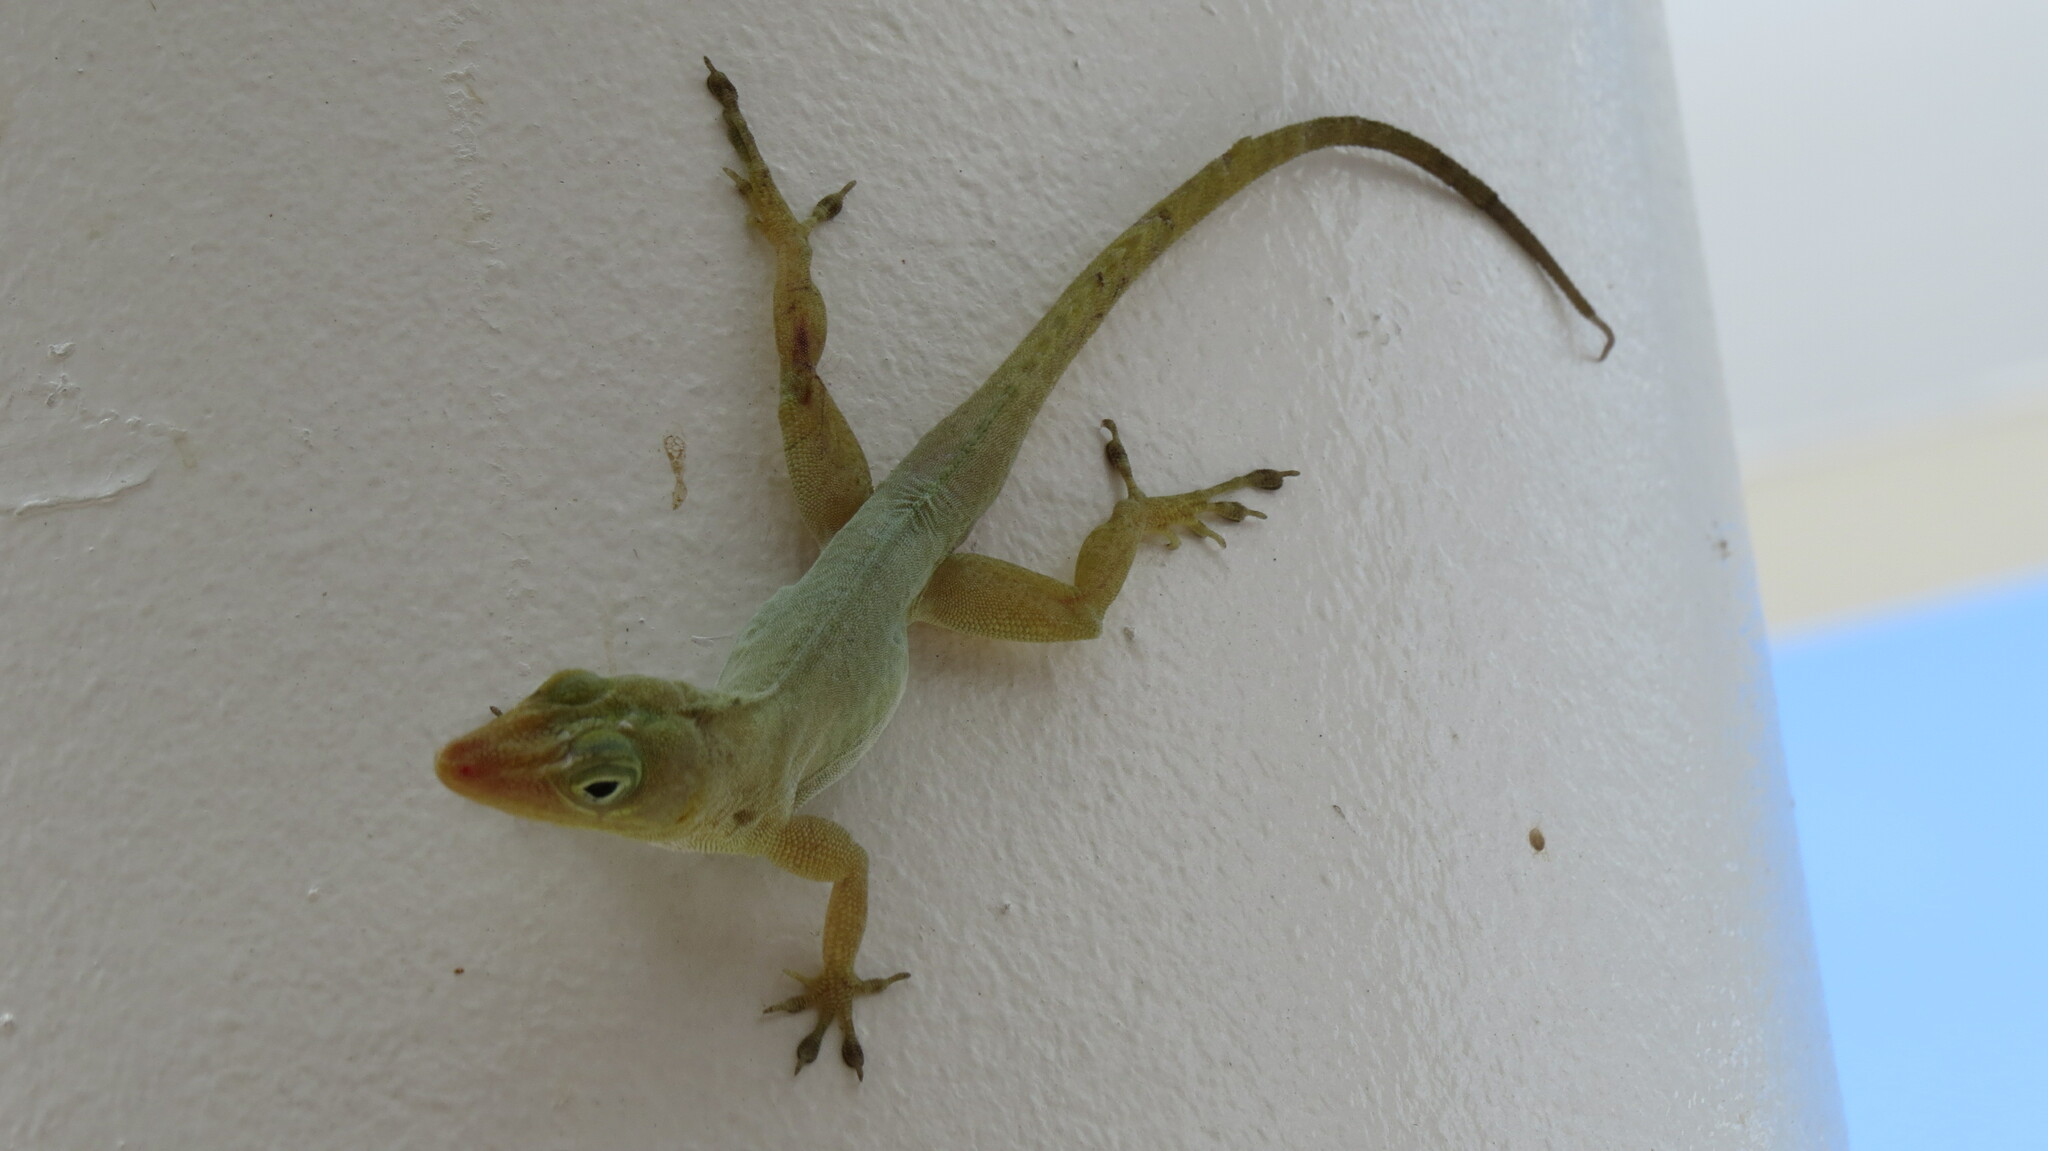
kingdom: Animalia
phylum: Chordata
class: Squamata
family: Dactyloidae
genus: Anolis
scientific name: Anolis acutus
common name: Saint croix's anole
